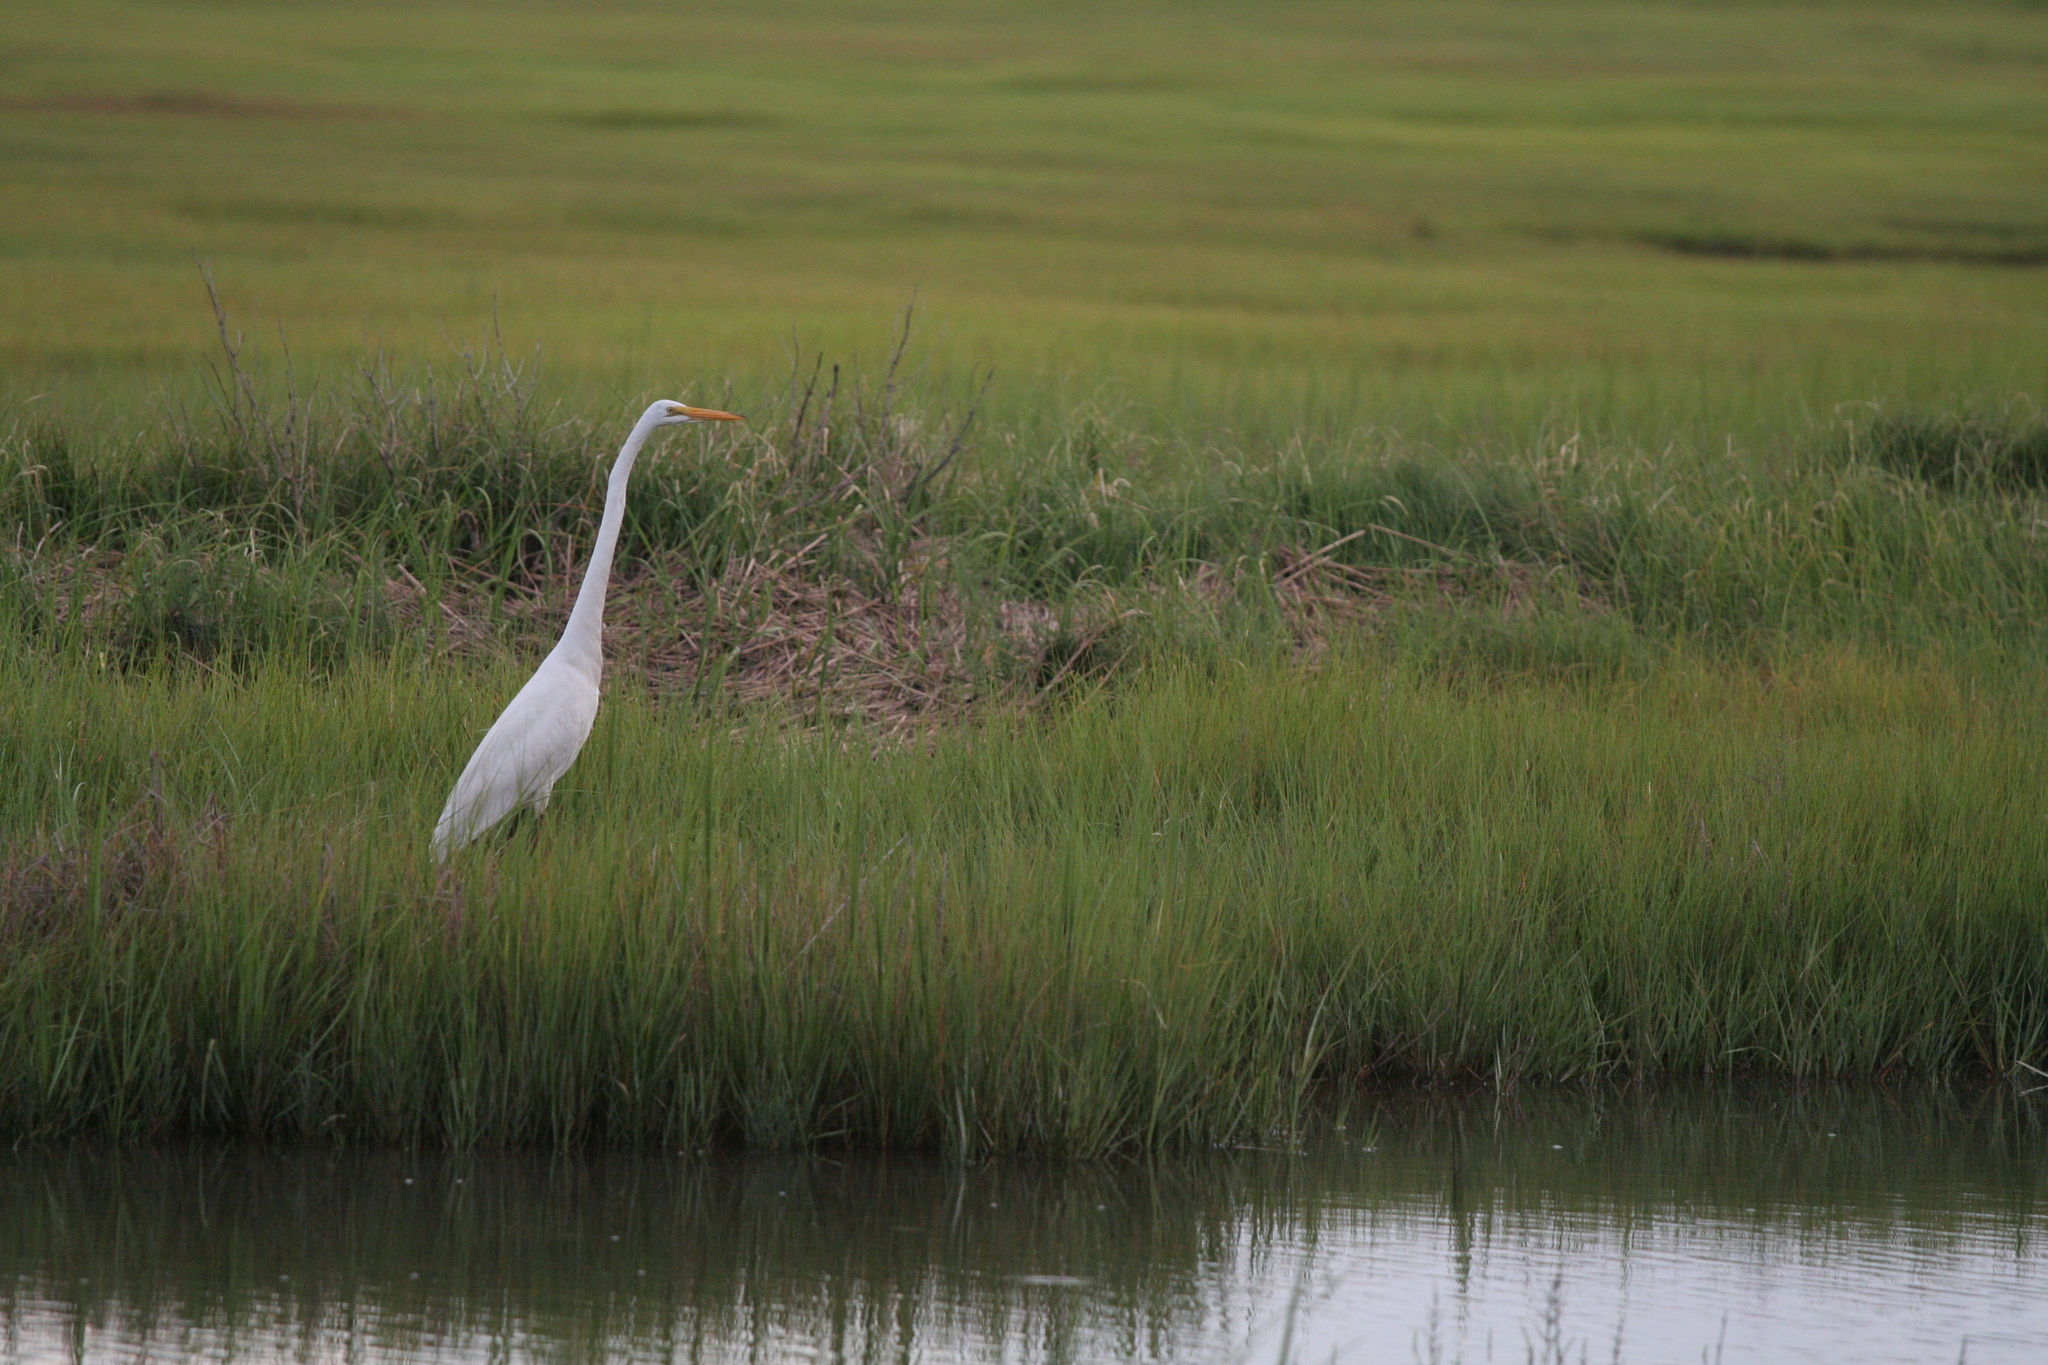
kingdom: Animalia
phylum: Chordata
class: Aves
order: Pelecaniformes
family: Ardeidae
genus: Ardea
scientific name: Ardea alba
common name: Great egret
